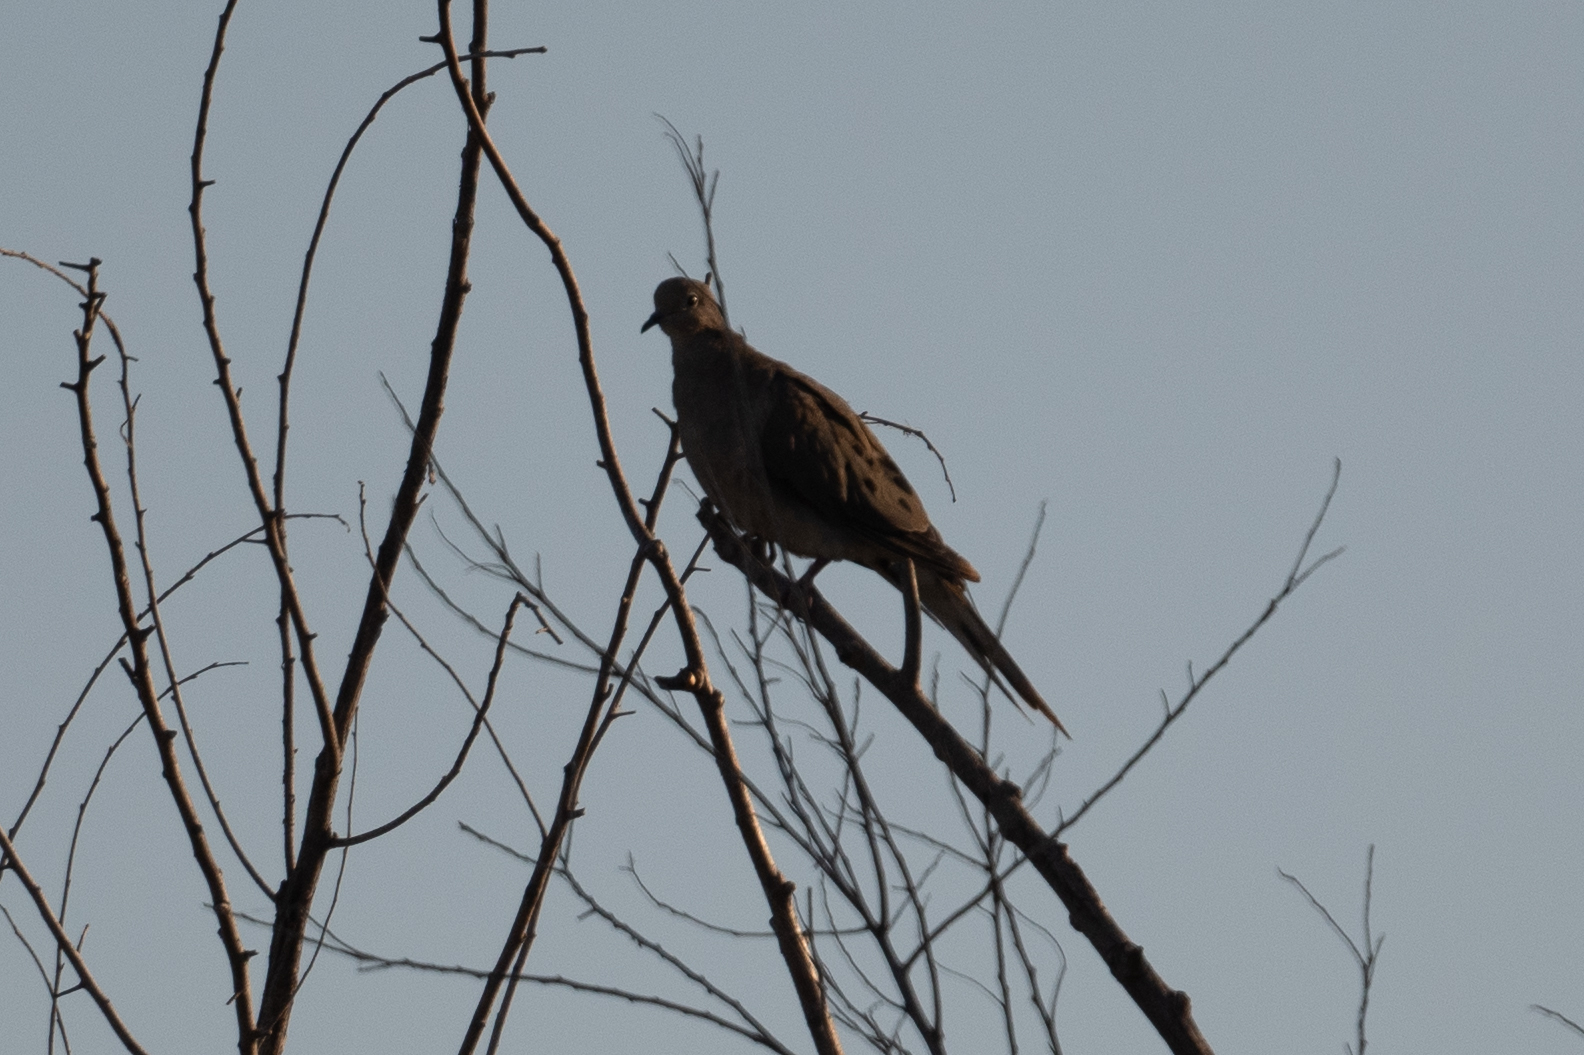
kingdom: Animalia
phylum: Chordata
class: Aves
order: Columbiformes
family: Columbidae
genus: Zenaida
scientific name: Zenaida macroura
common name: Mourning dove
